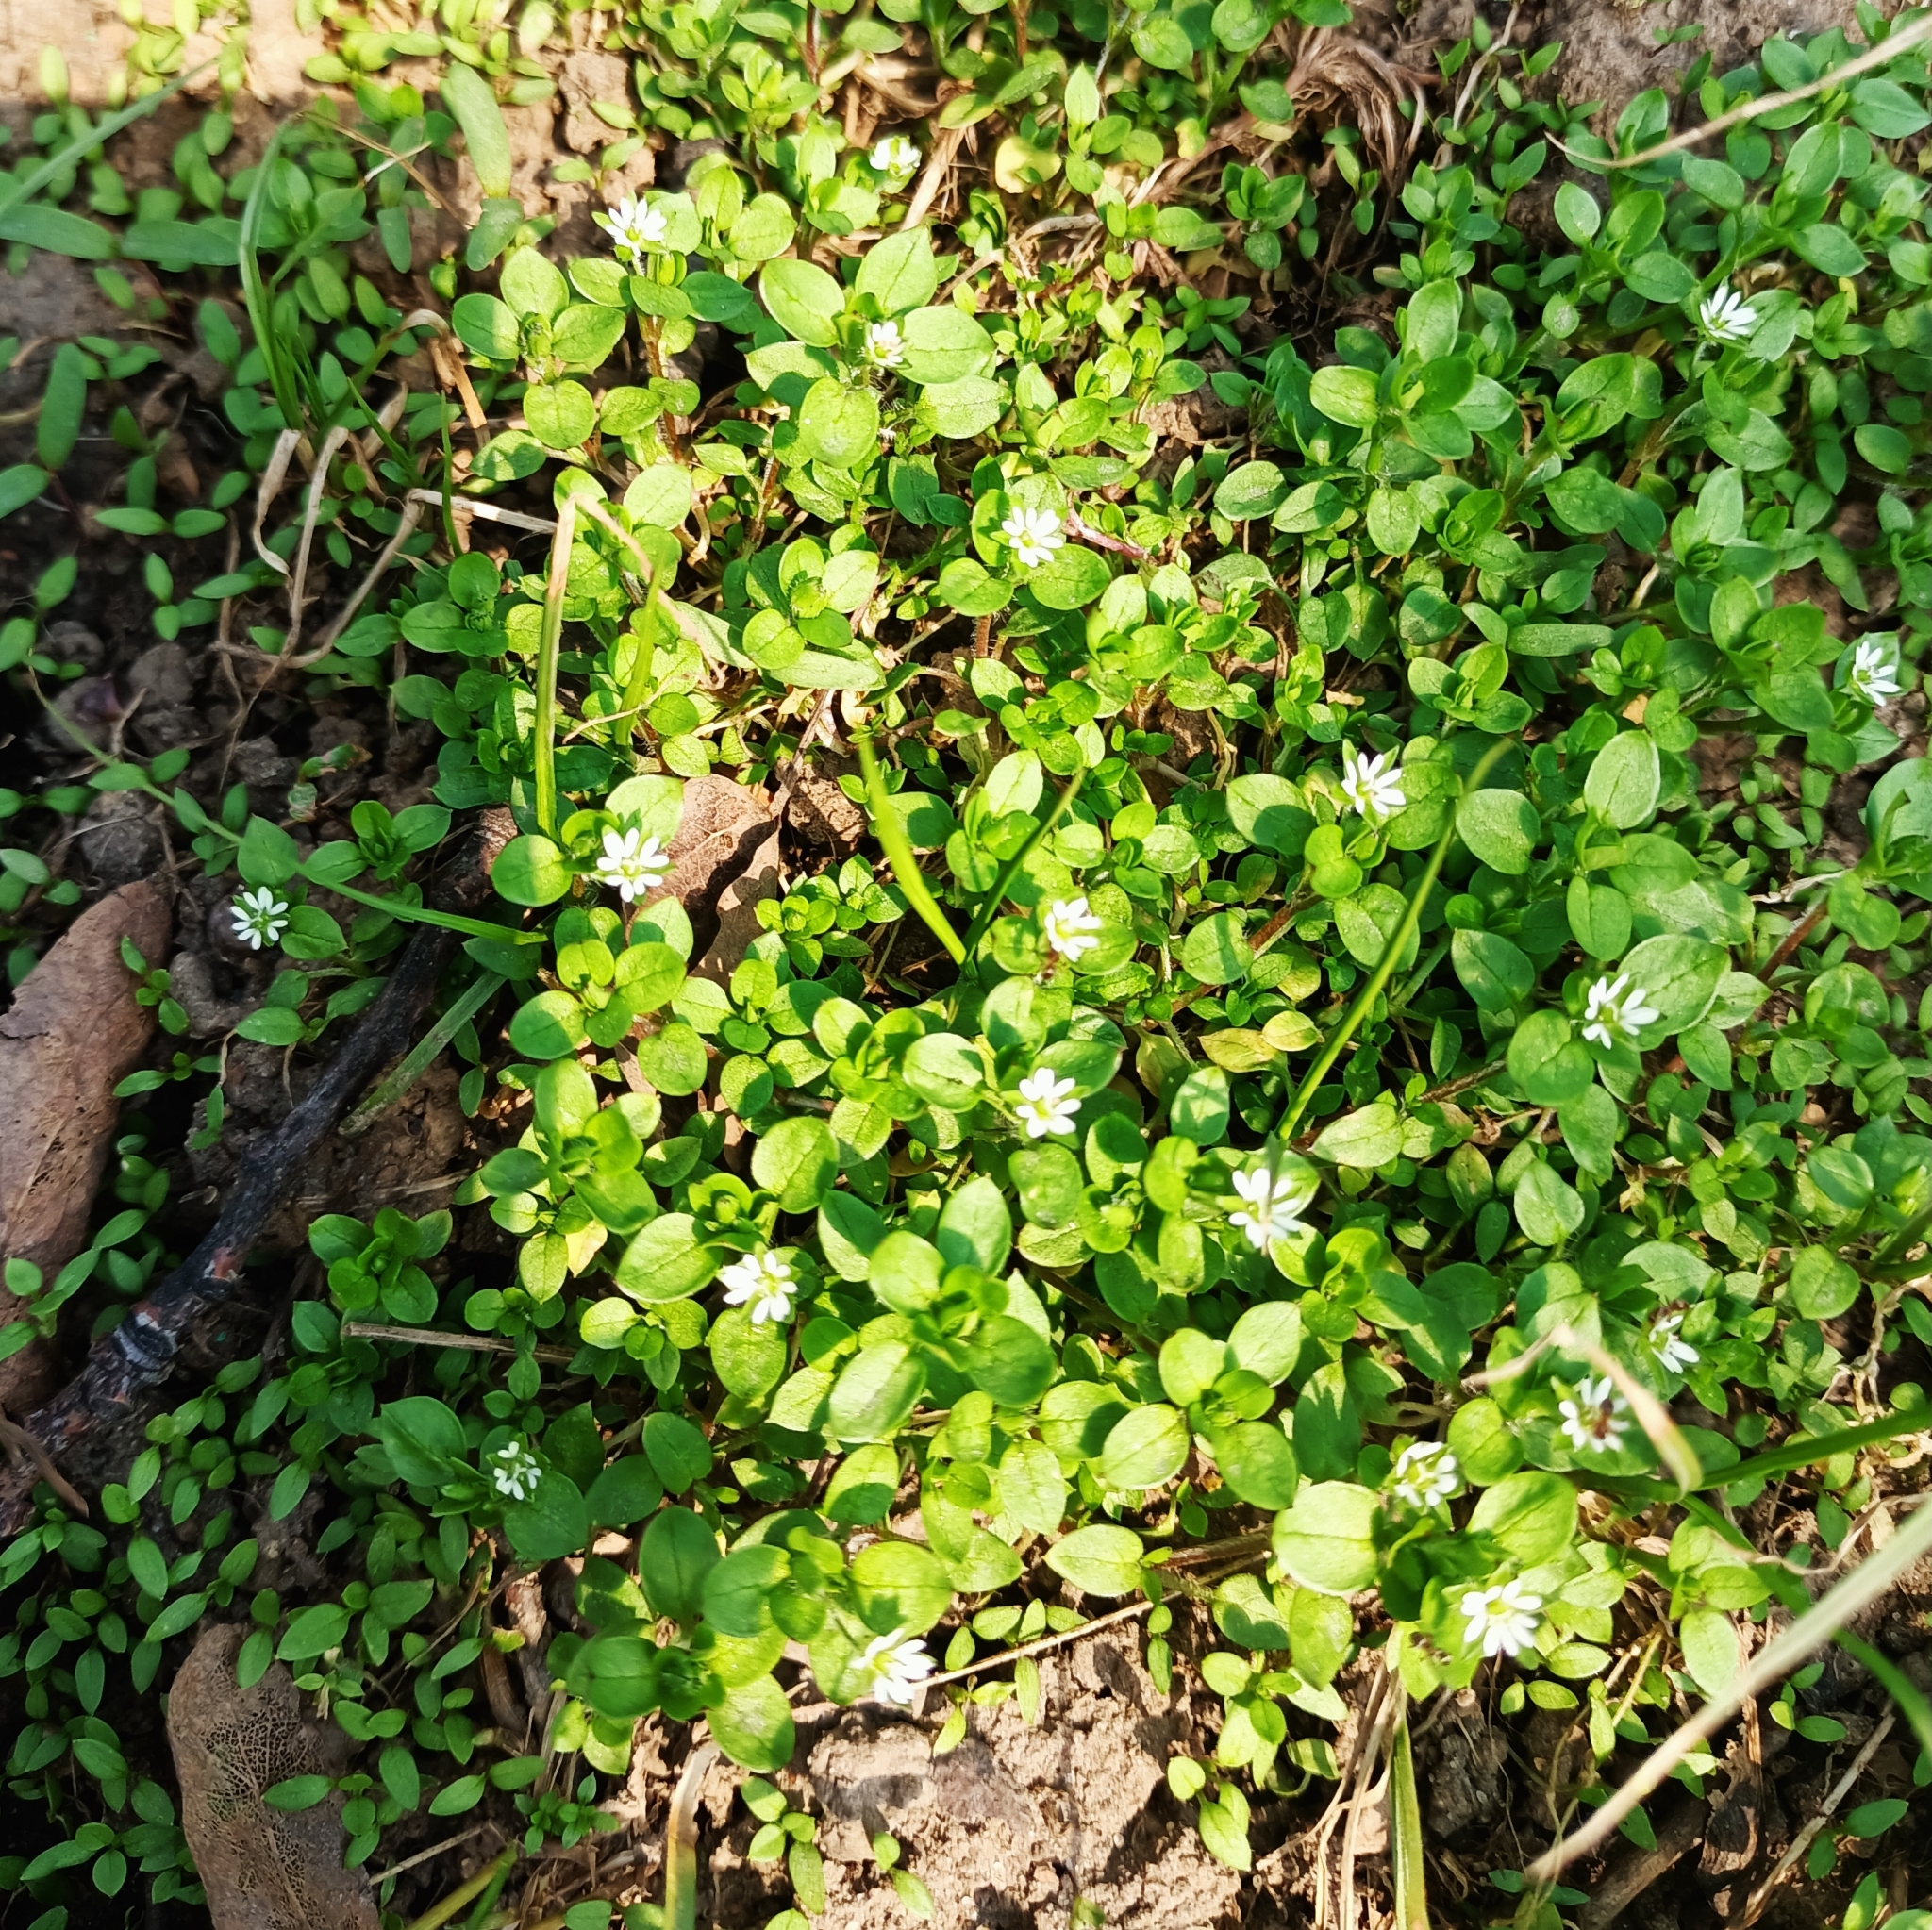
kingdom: Plantae
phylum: Tracheophyta
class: Magnoliopsida
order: Caryophyllales
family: Caryophyllaceae
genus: Stellaria
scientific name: Stellaria media
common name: Common chickweed
